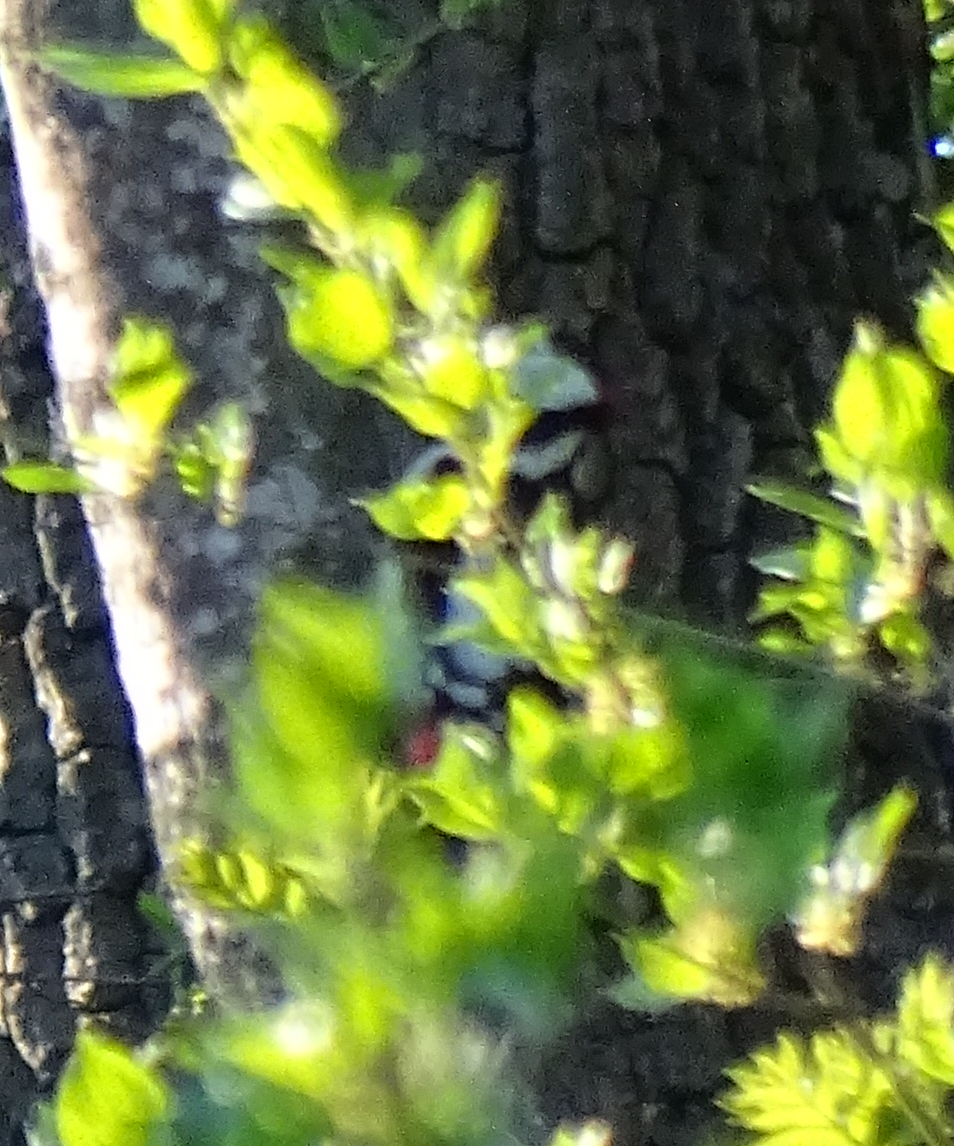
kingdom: Animalia
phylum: Chordata
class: Aves
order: Piciformes
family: Picidae
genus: Dendrocopos
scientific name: Dendrocopos major
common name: Great spotted woodpecker
